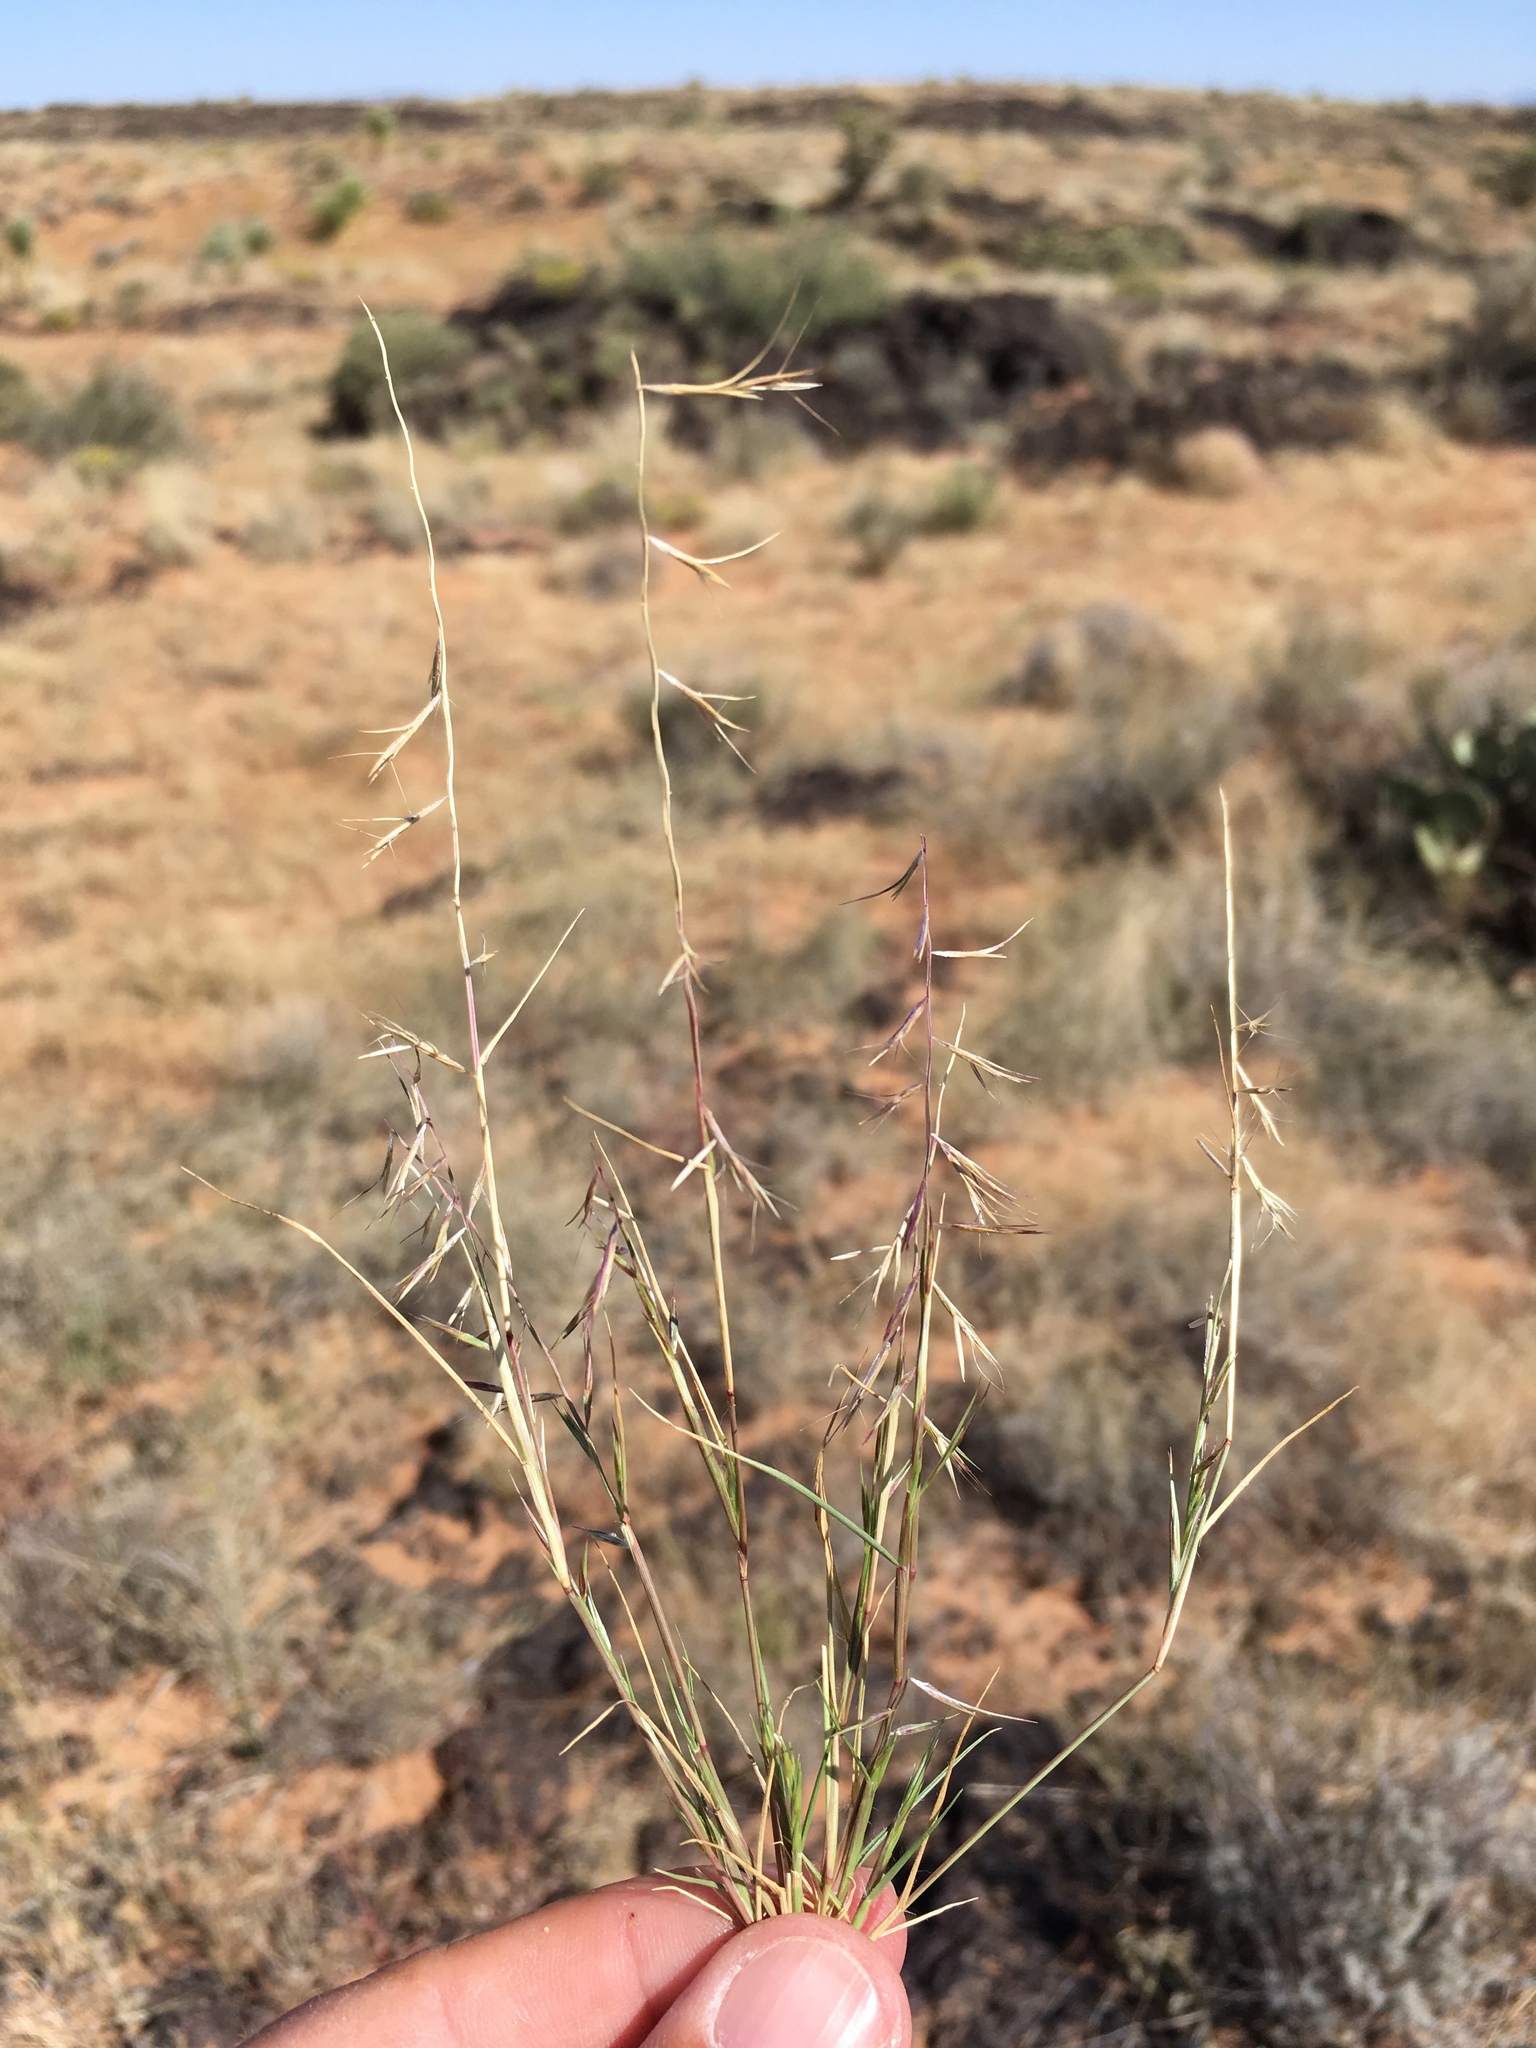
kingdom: Plantae
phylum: Tracheophyta
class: Liliopsida
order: Poales
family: Poaceae
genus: Bouteloua
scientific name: Bouteloua aristidoides
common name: Needle grama
